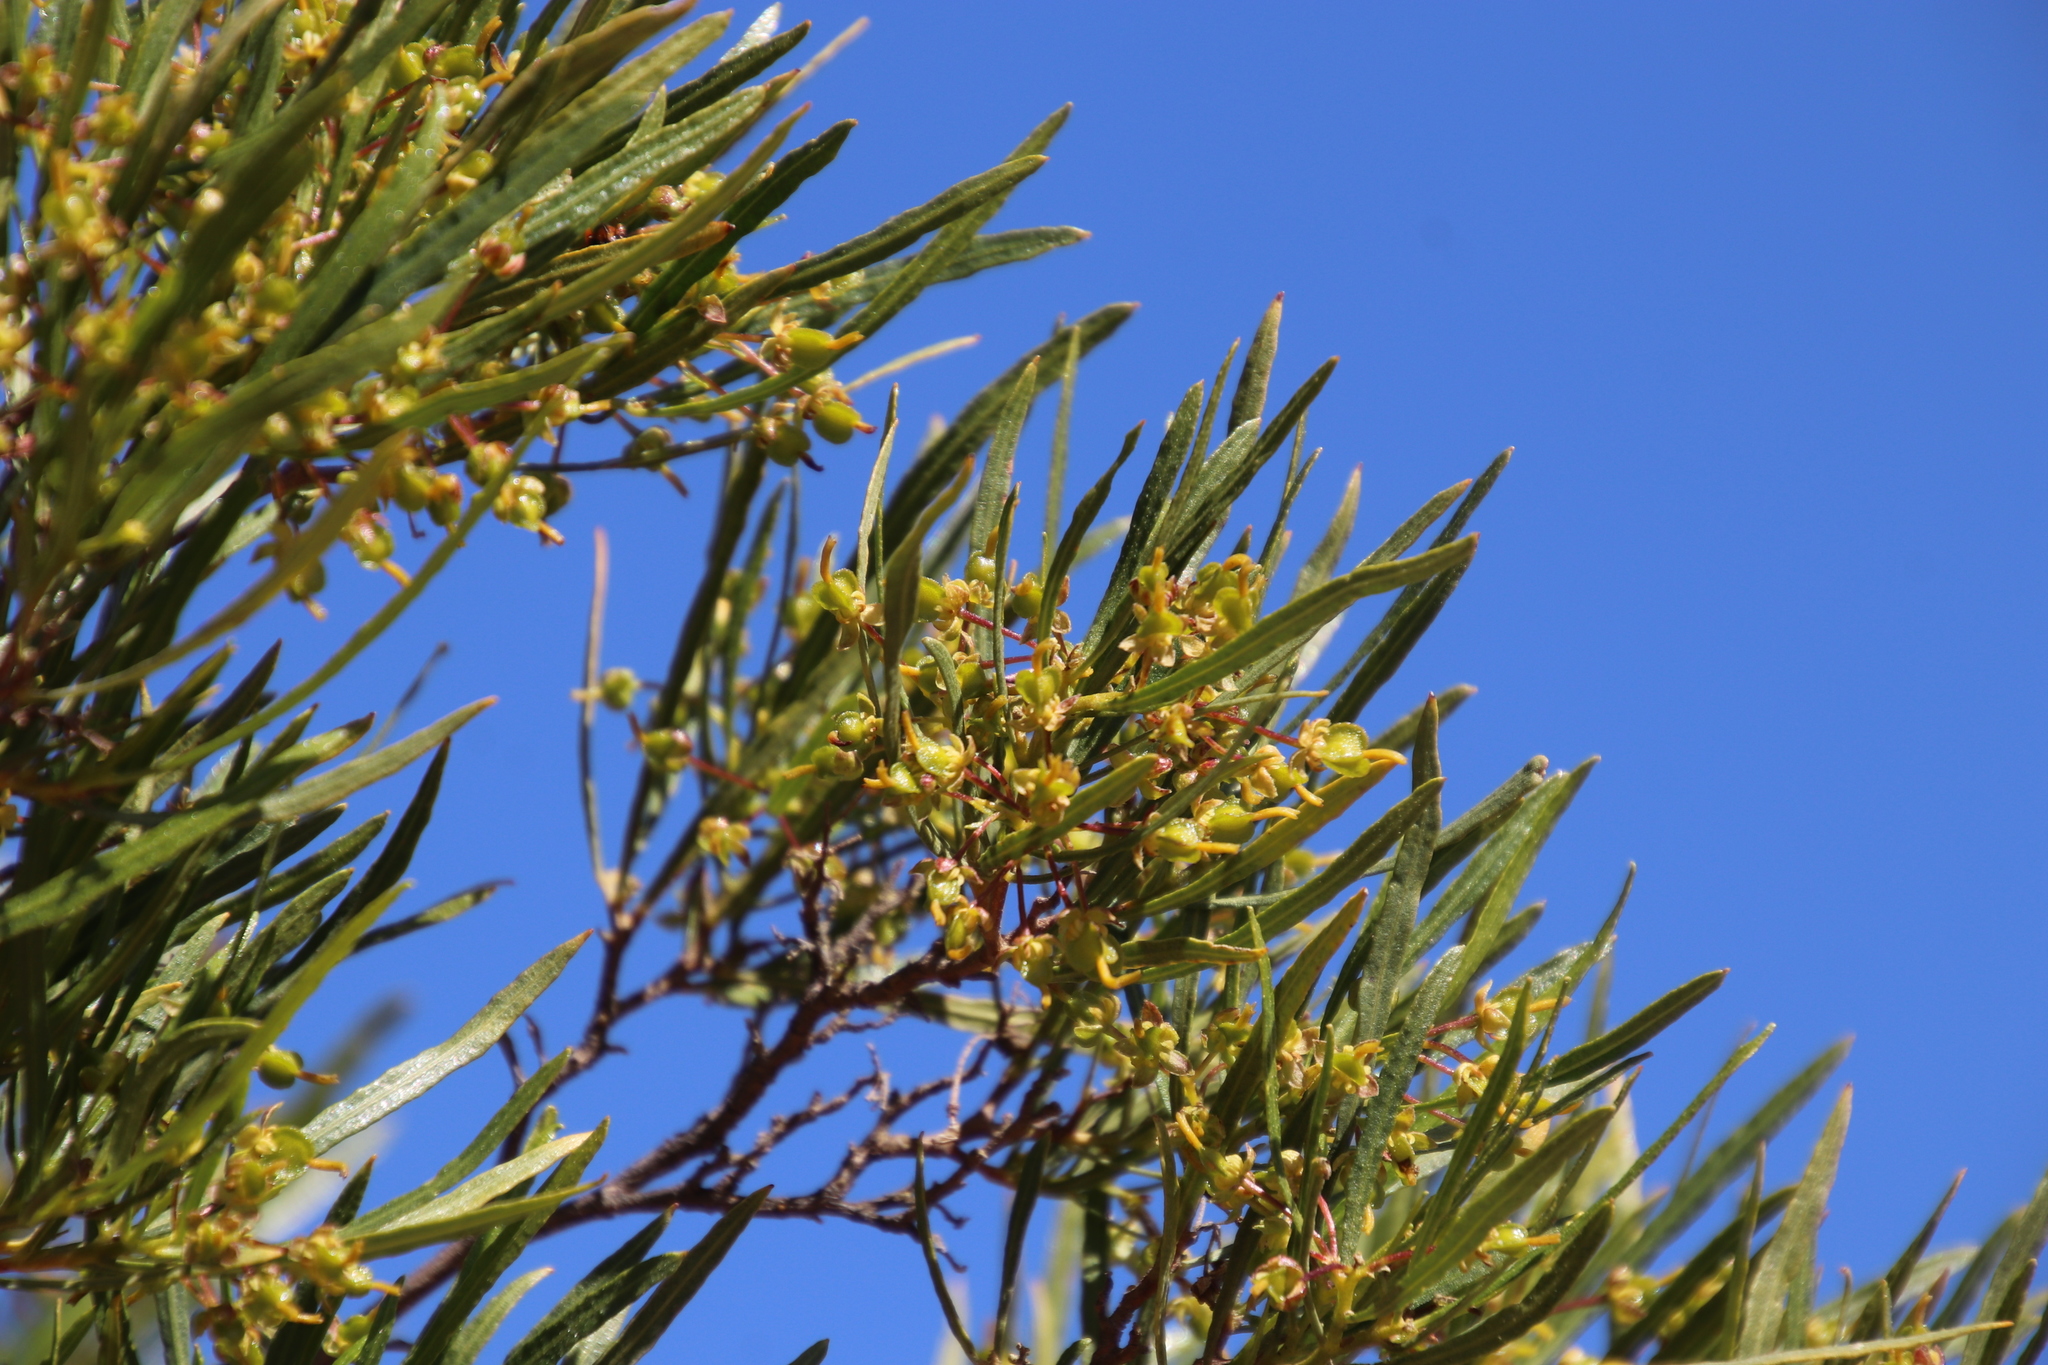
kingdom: Plantae
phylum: Tracheophyta
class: Magnoliopsida
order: Sapindales
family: Sapindaceae
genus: Dodonaea
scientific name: Dodonaea viscosa
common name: Hopbush
